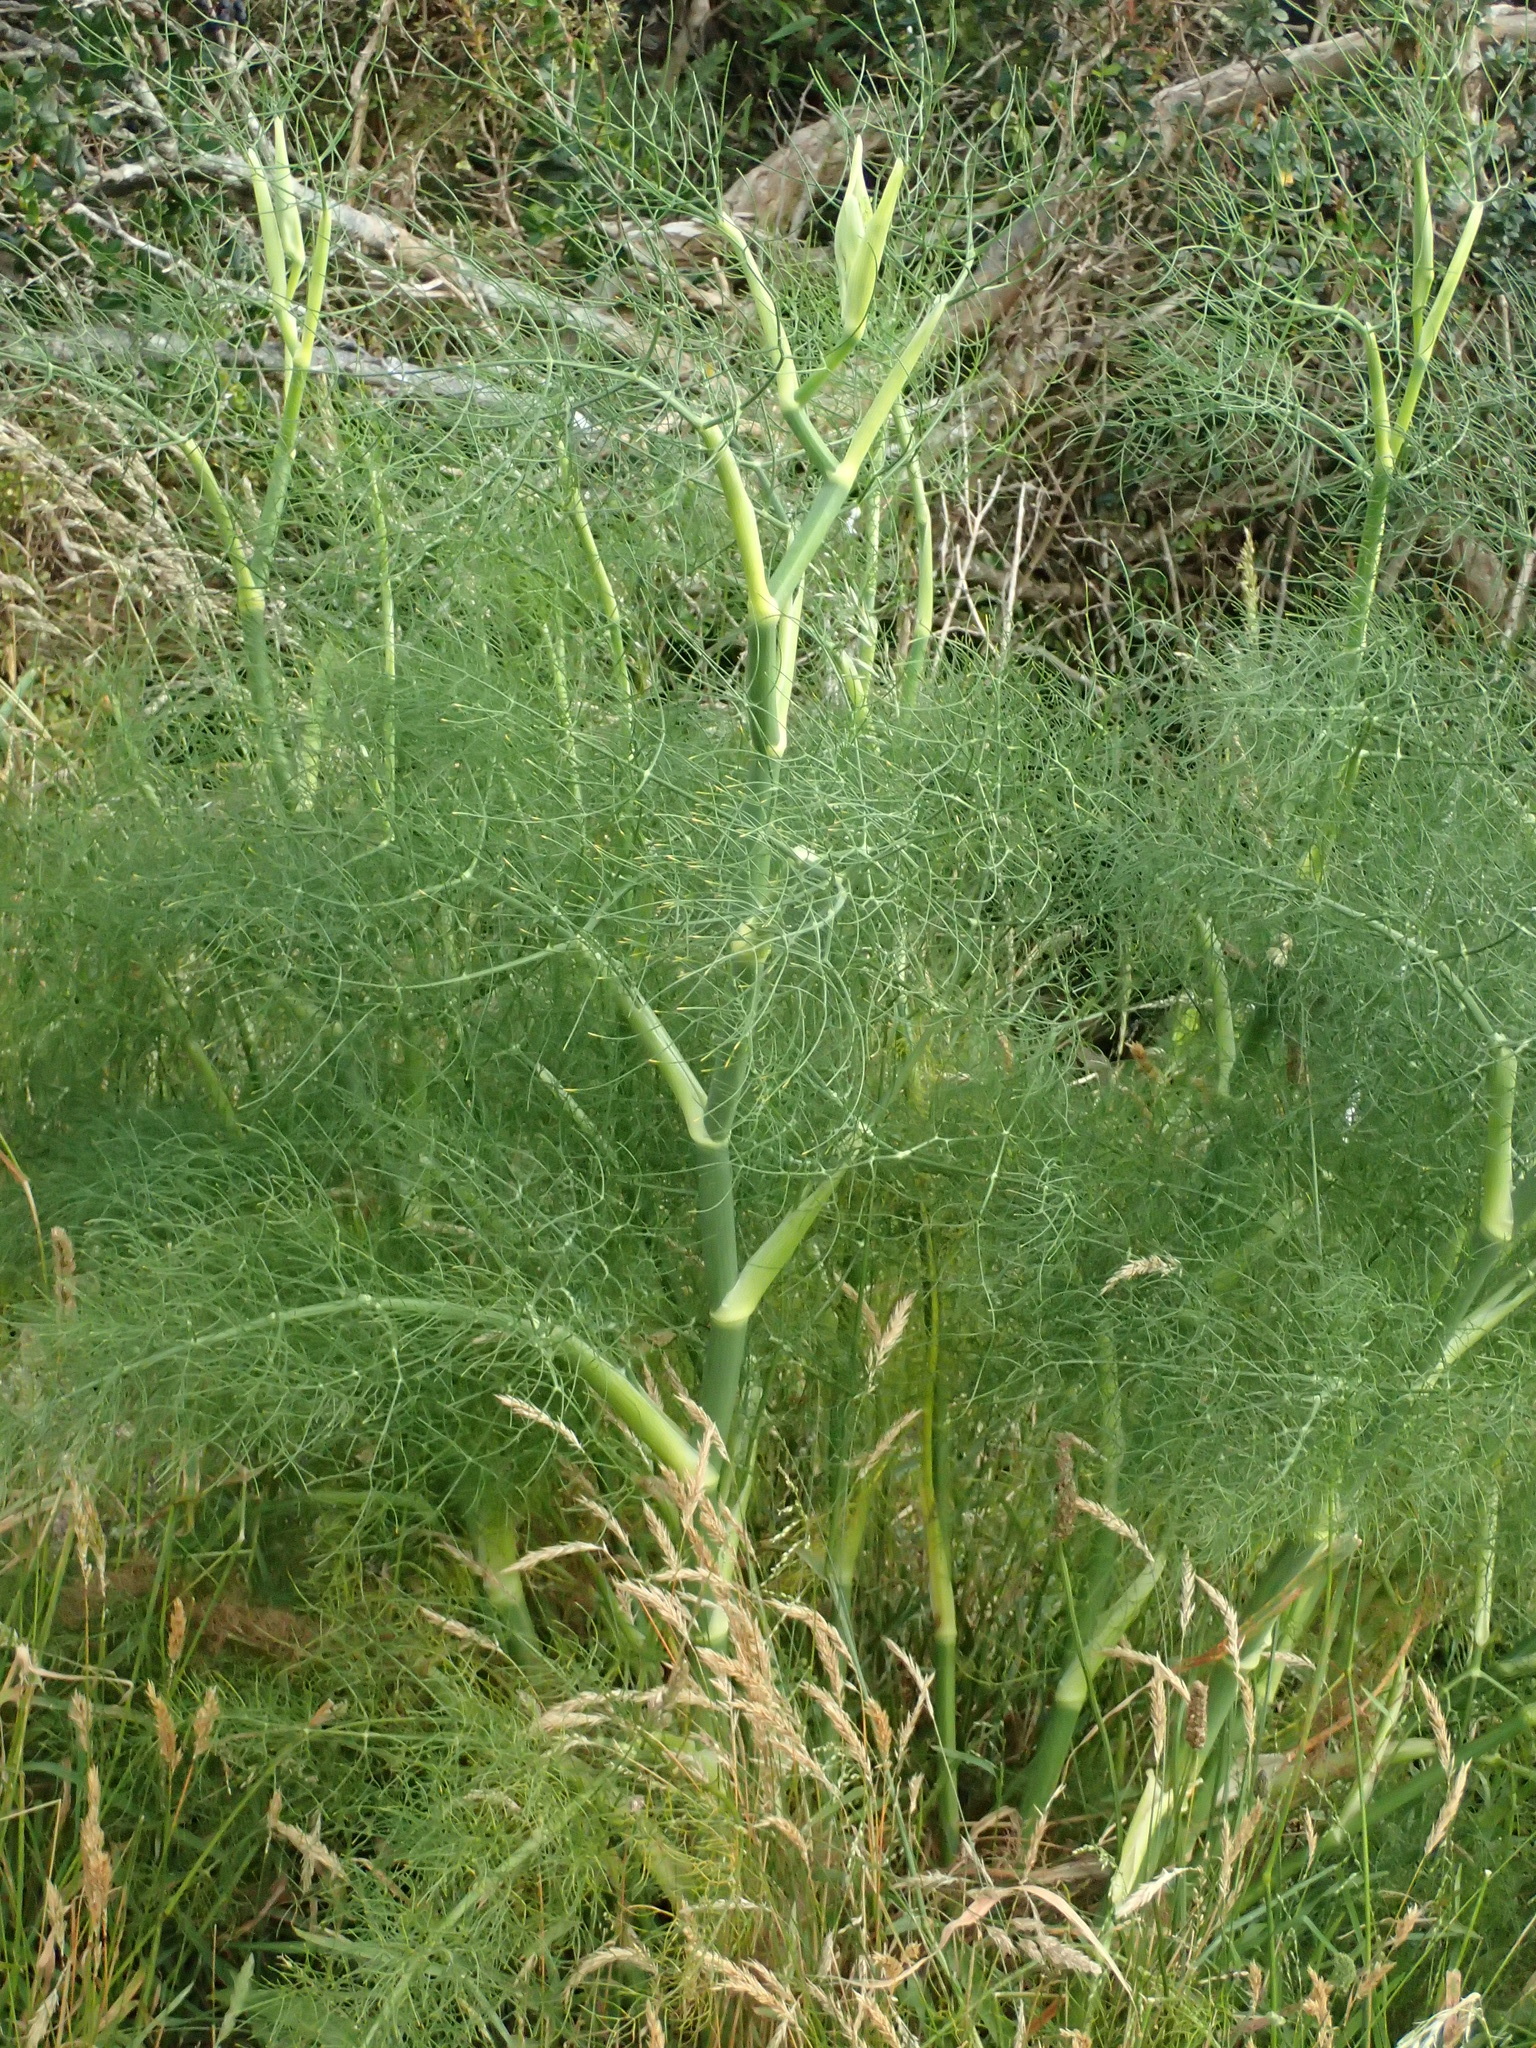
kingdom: Plantae
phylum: Tracheophyta
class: Magnoliopsida
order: Apiales
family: Apiaceae
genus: Foeniculum
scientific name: Foeniculum vulgare
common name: Fennel
